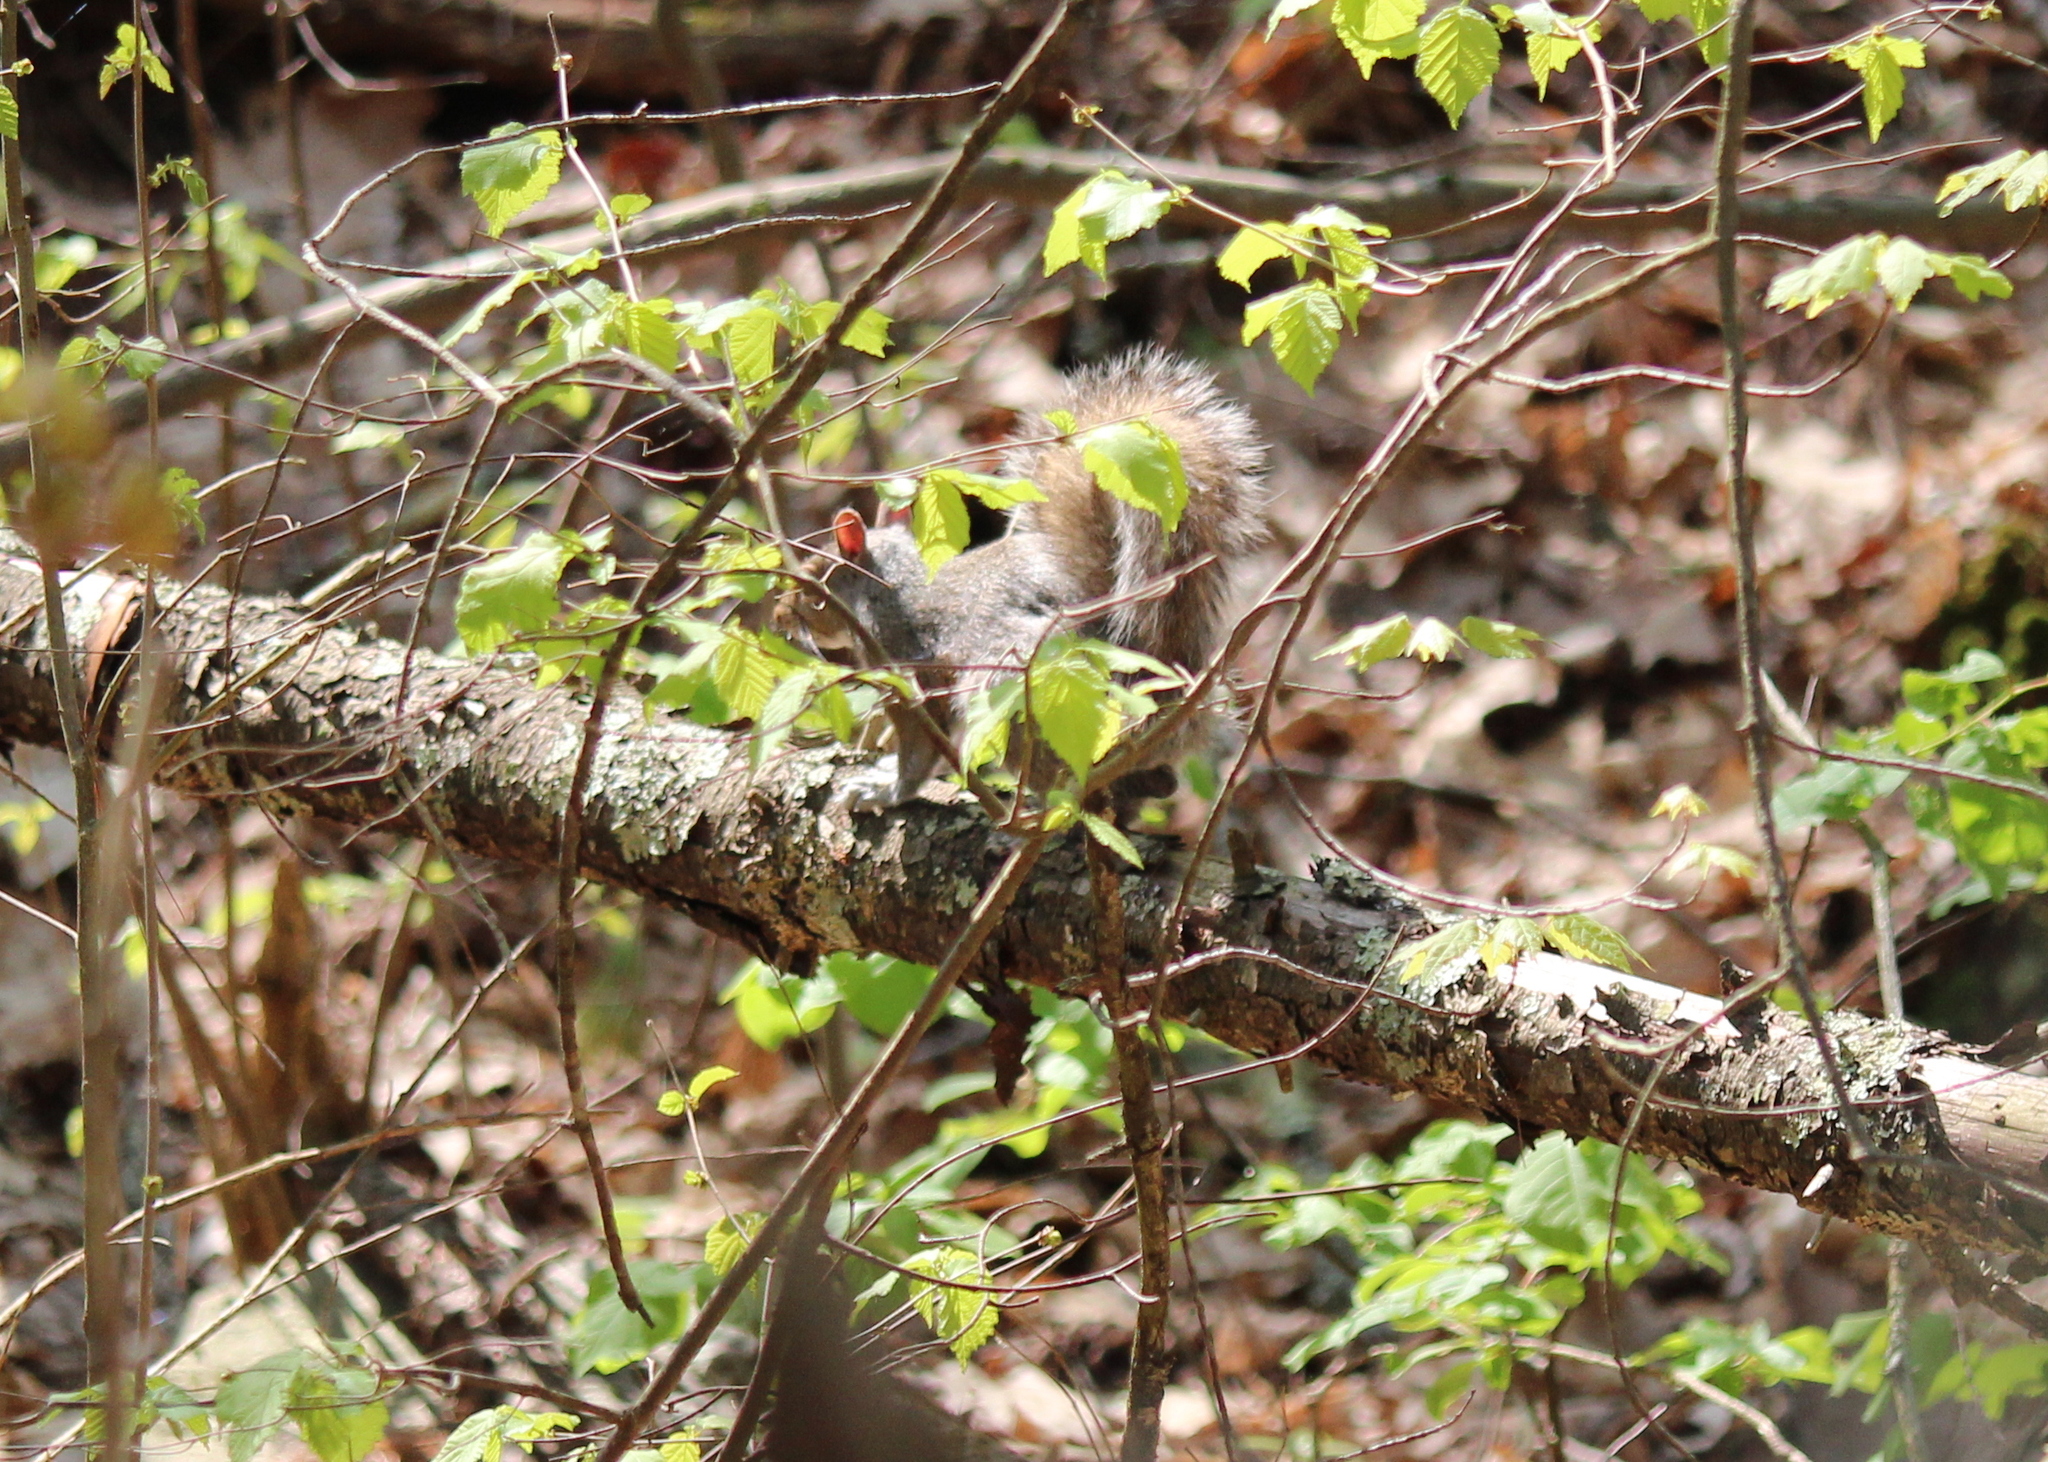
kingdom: Animalia
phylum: Chordata
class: Mammalia
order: Rodentia
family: Sciuridae
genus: Sciurus
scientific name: Sciurus carolinensis
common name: Eastern gray squirrel
